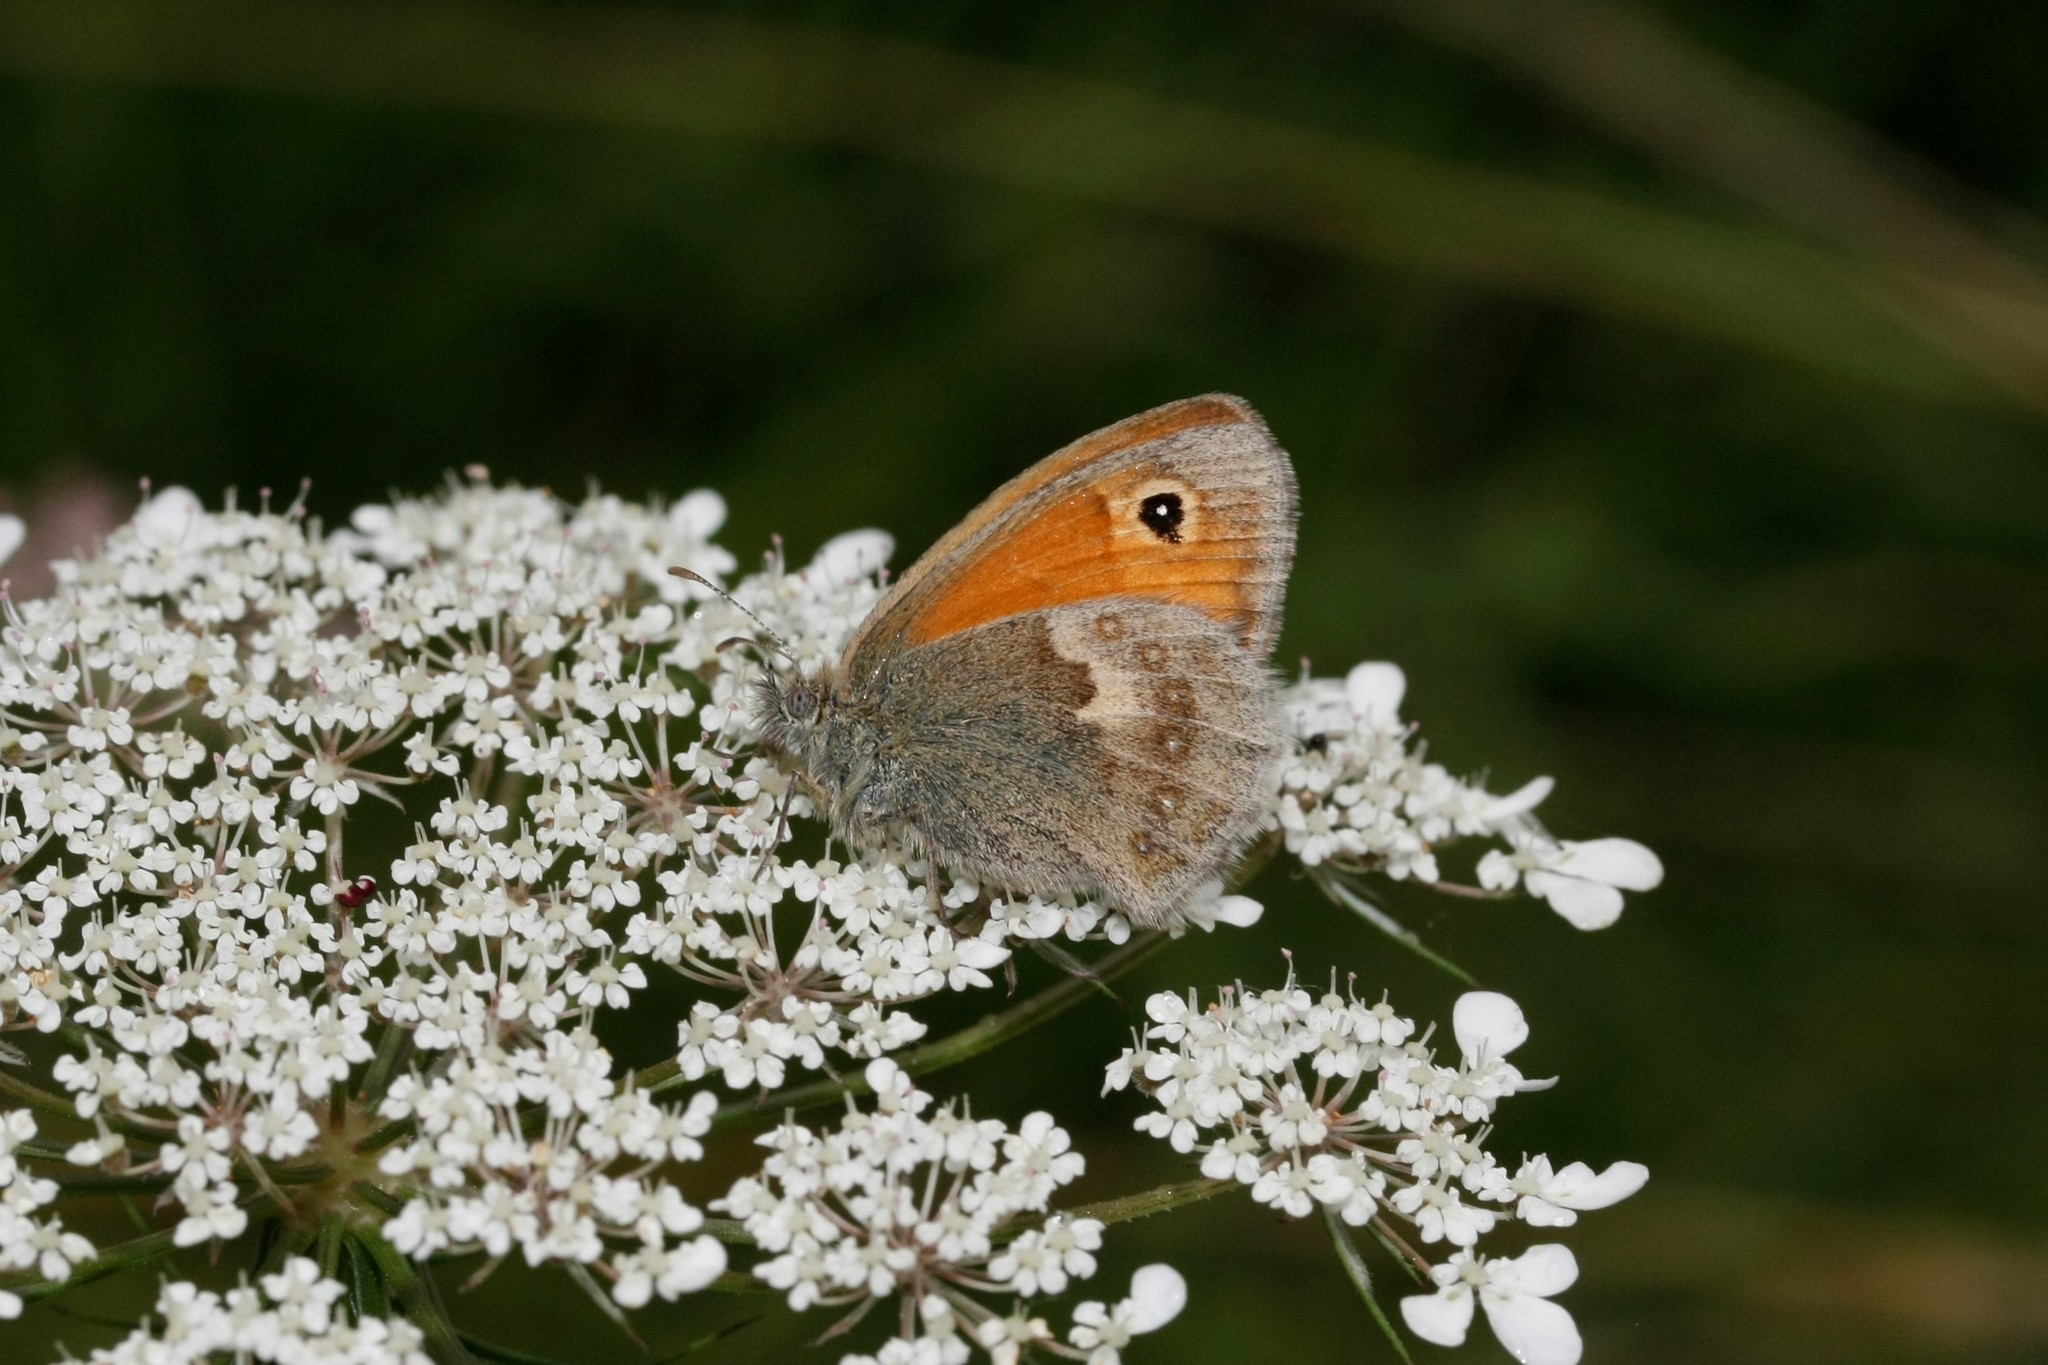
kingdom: Animalia
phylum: Arthropoda
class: Insecta
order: Lepidoptera
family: Nymphalidae
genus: Coenonympha
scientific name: Coenonympha pamphilus
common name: Small heath
